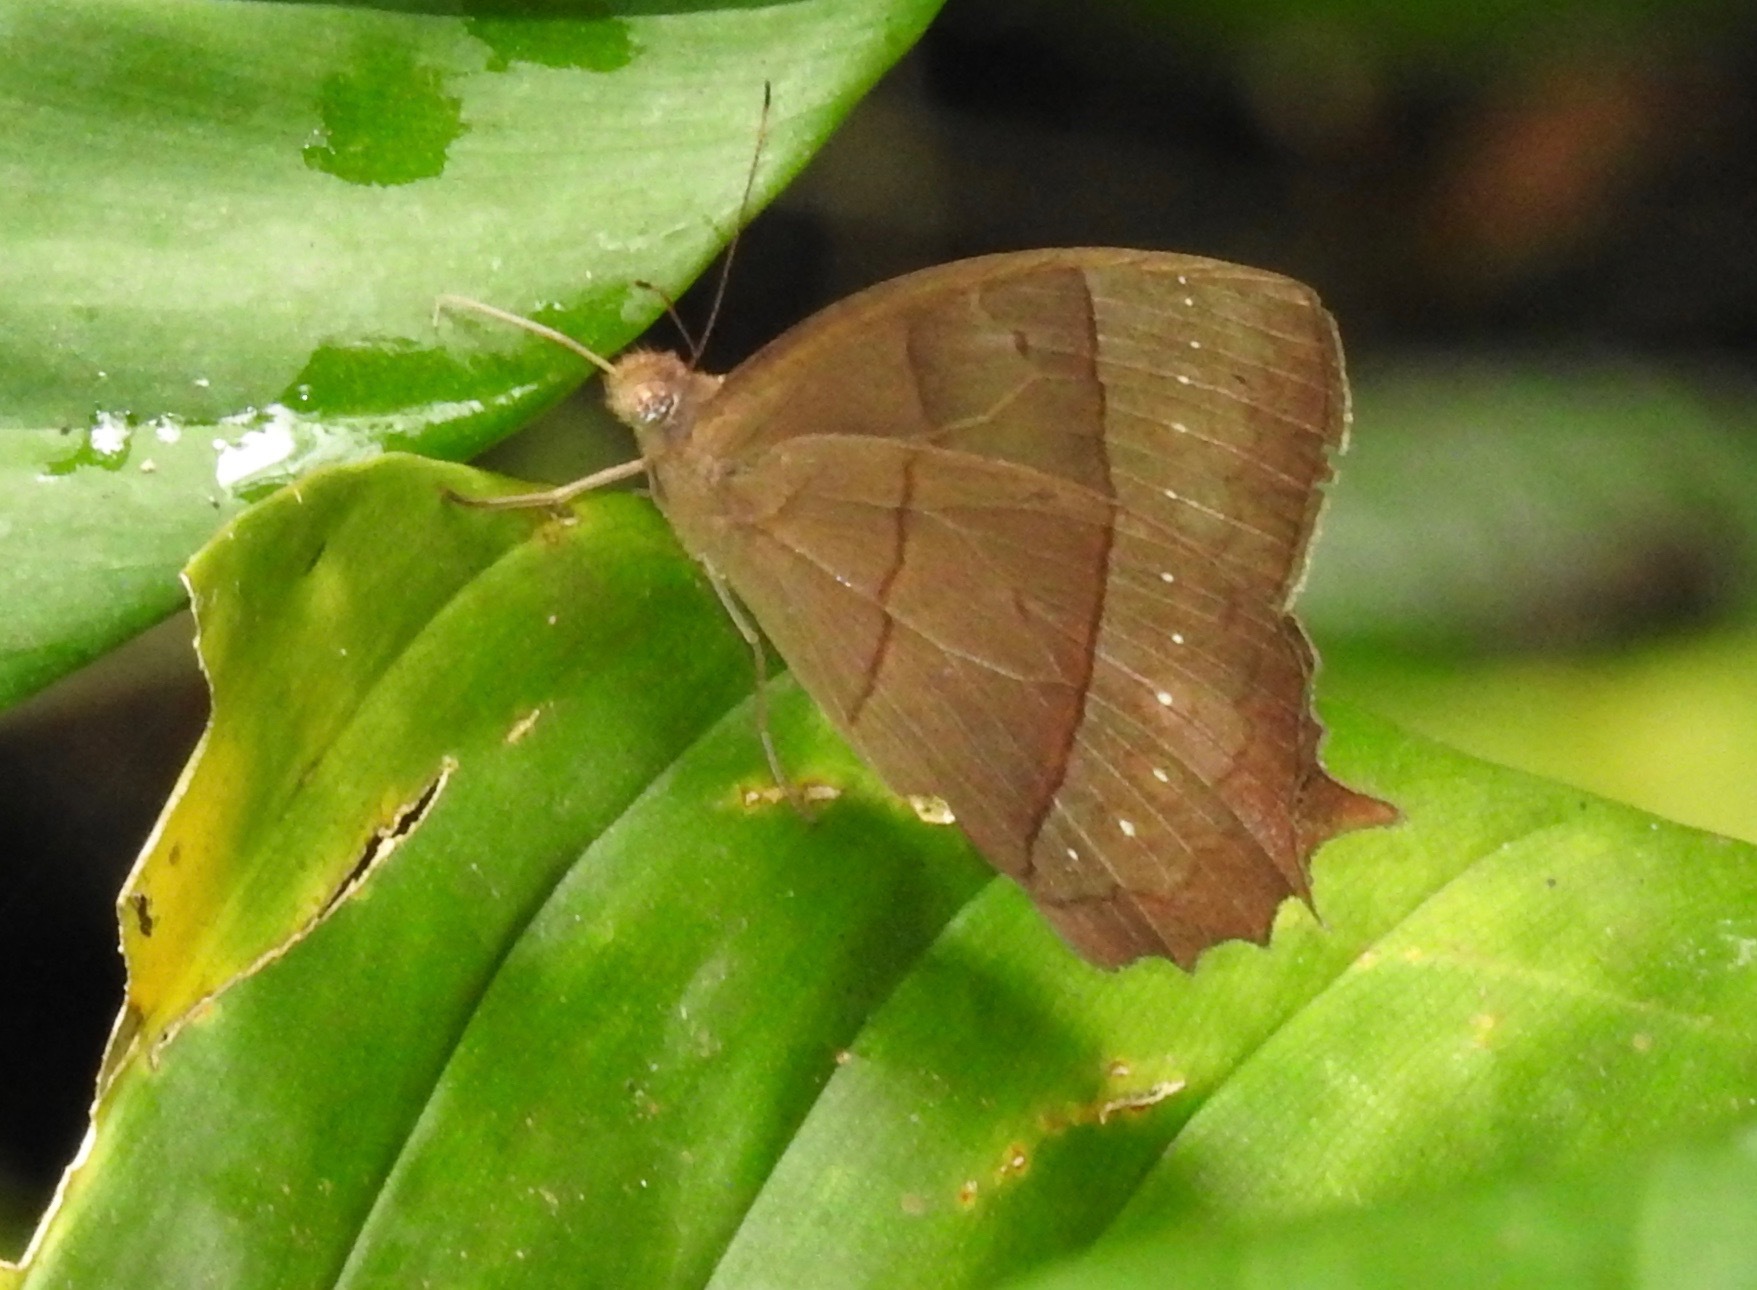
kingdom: Animalia
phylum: Arthropoda
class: Insecta
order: Lepidoptera
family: Nymphalidae
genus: Taygetis
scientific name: Taygetis virgilia
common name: Stub-tailed satyr
